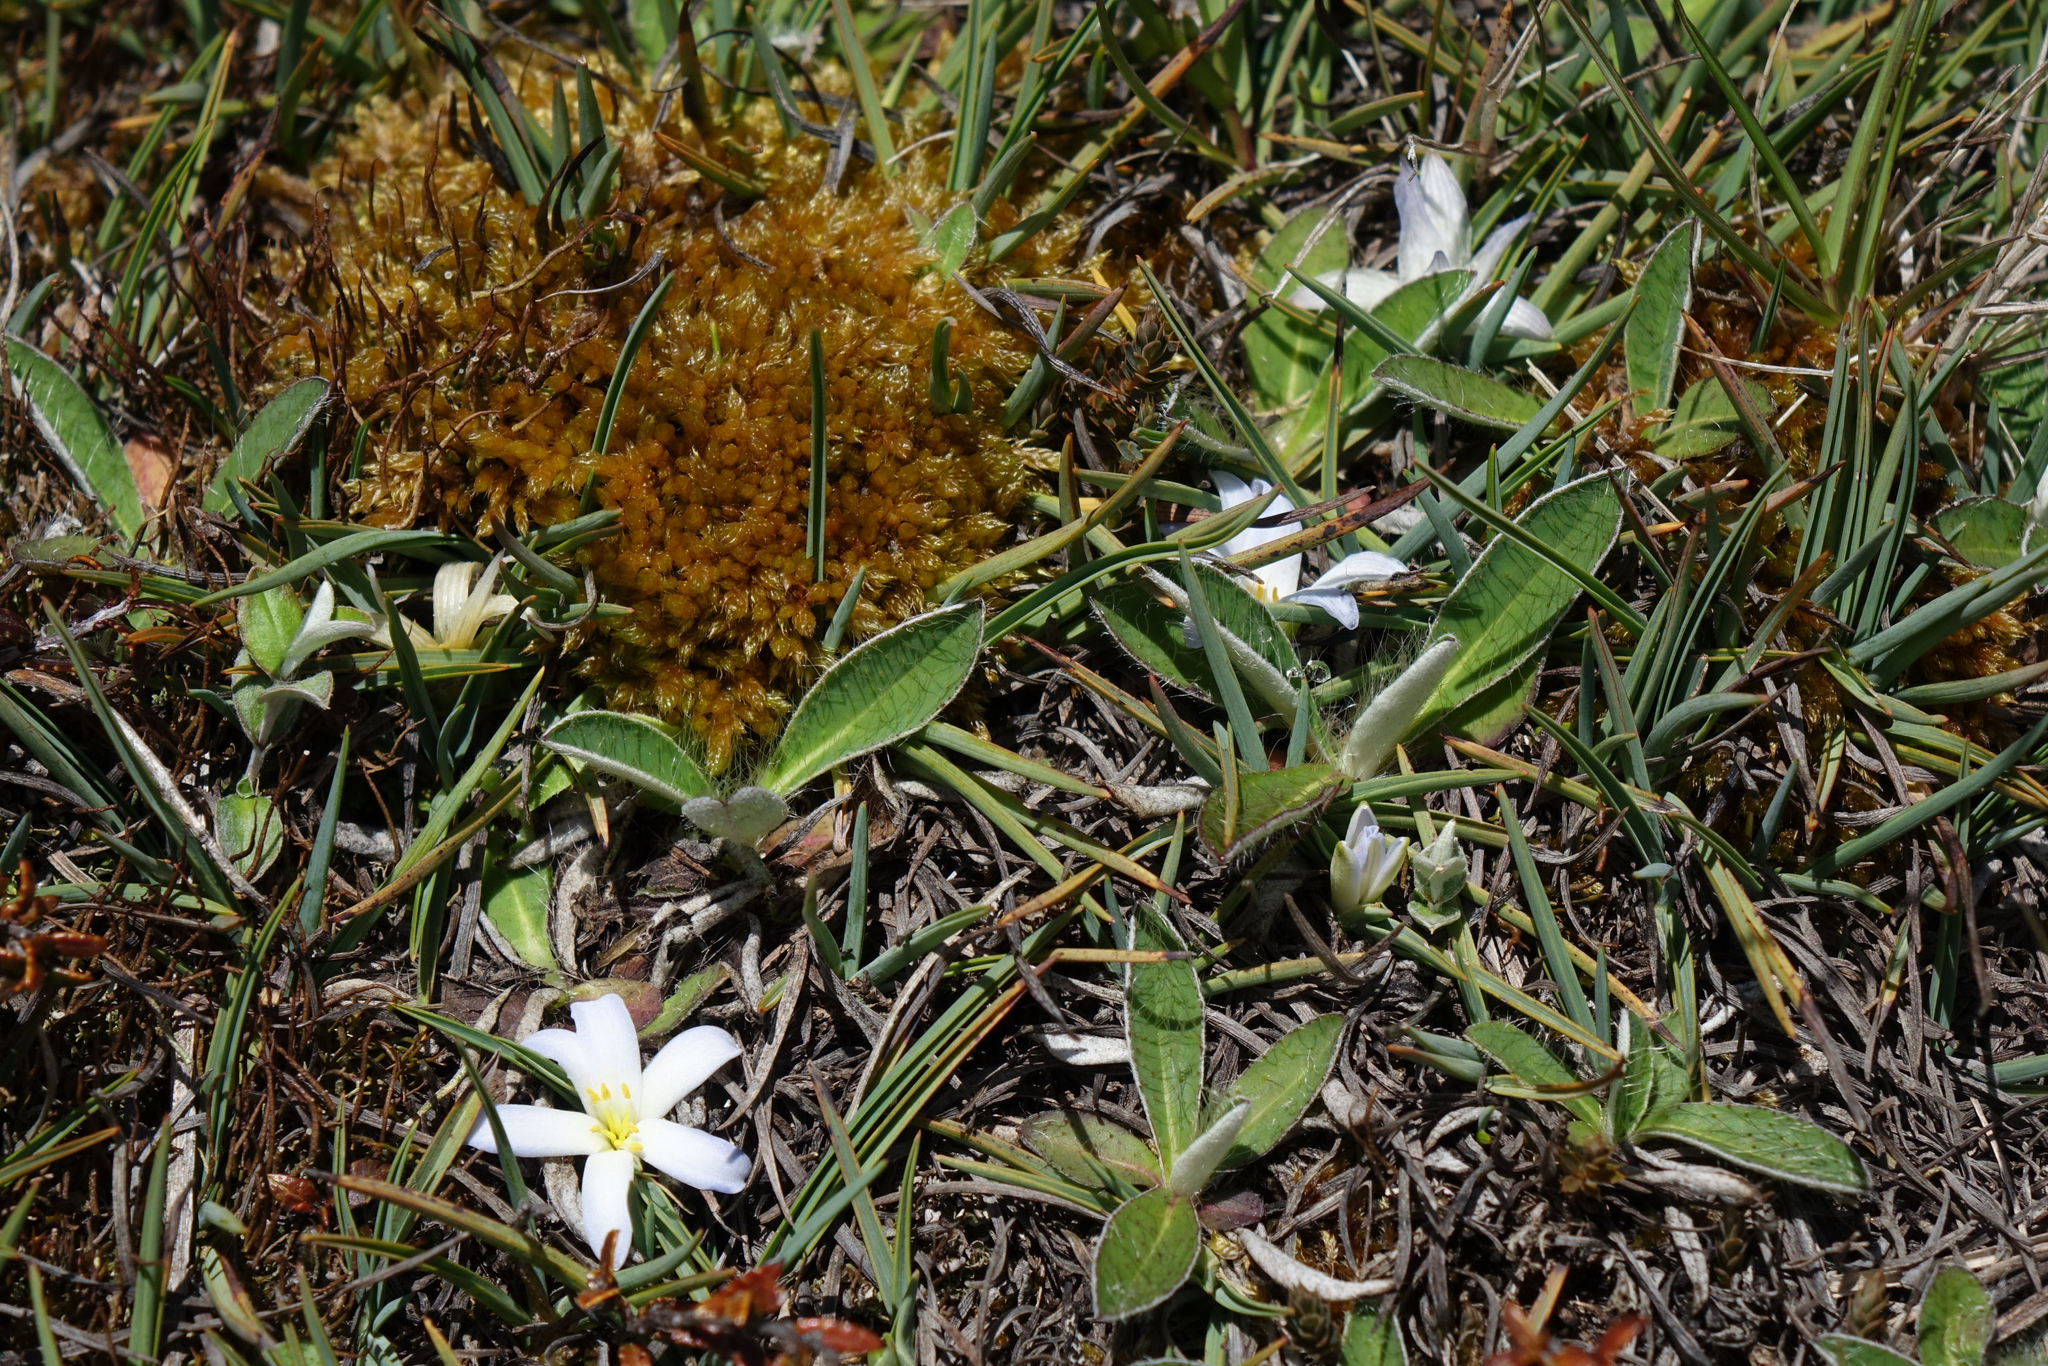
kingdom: Plantae
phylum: Tracheophyta
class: Liliopsida
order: Asparagales
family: Asphodelaceae
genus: Herpolirion
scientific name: Herpolirion novae-zelandiae
